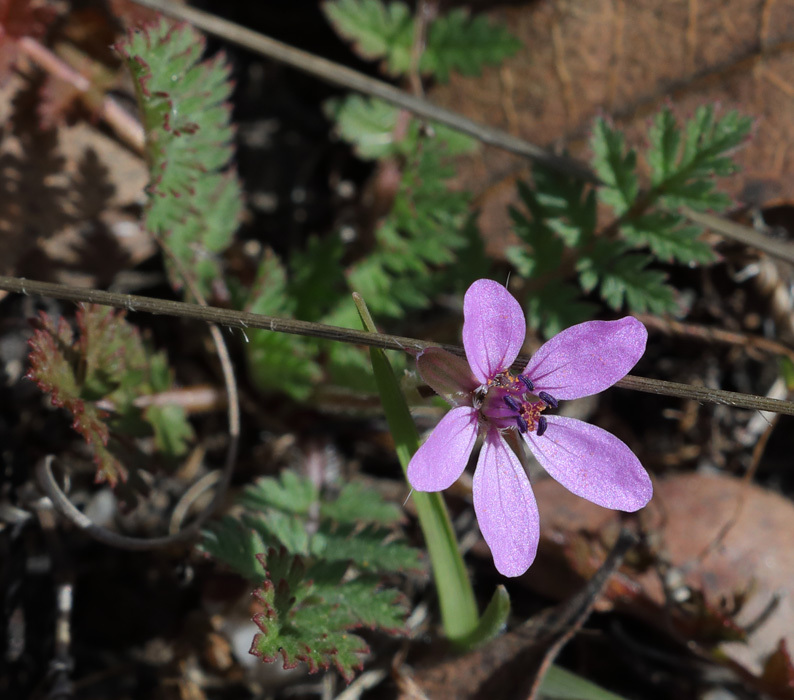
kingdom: Plantae
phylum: Tracheophyta
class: Magnoliopsida
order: Geraniales
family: Geraniaceae
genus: Erodium
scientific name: Erodium cicutarium
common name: Common stork's-bill
